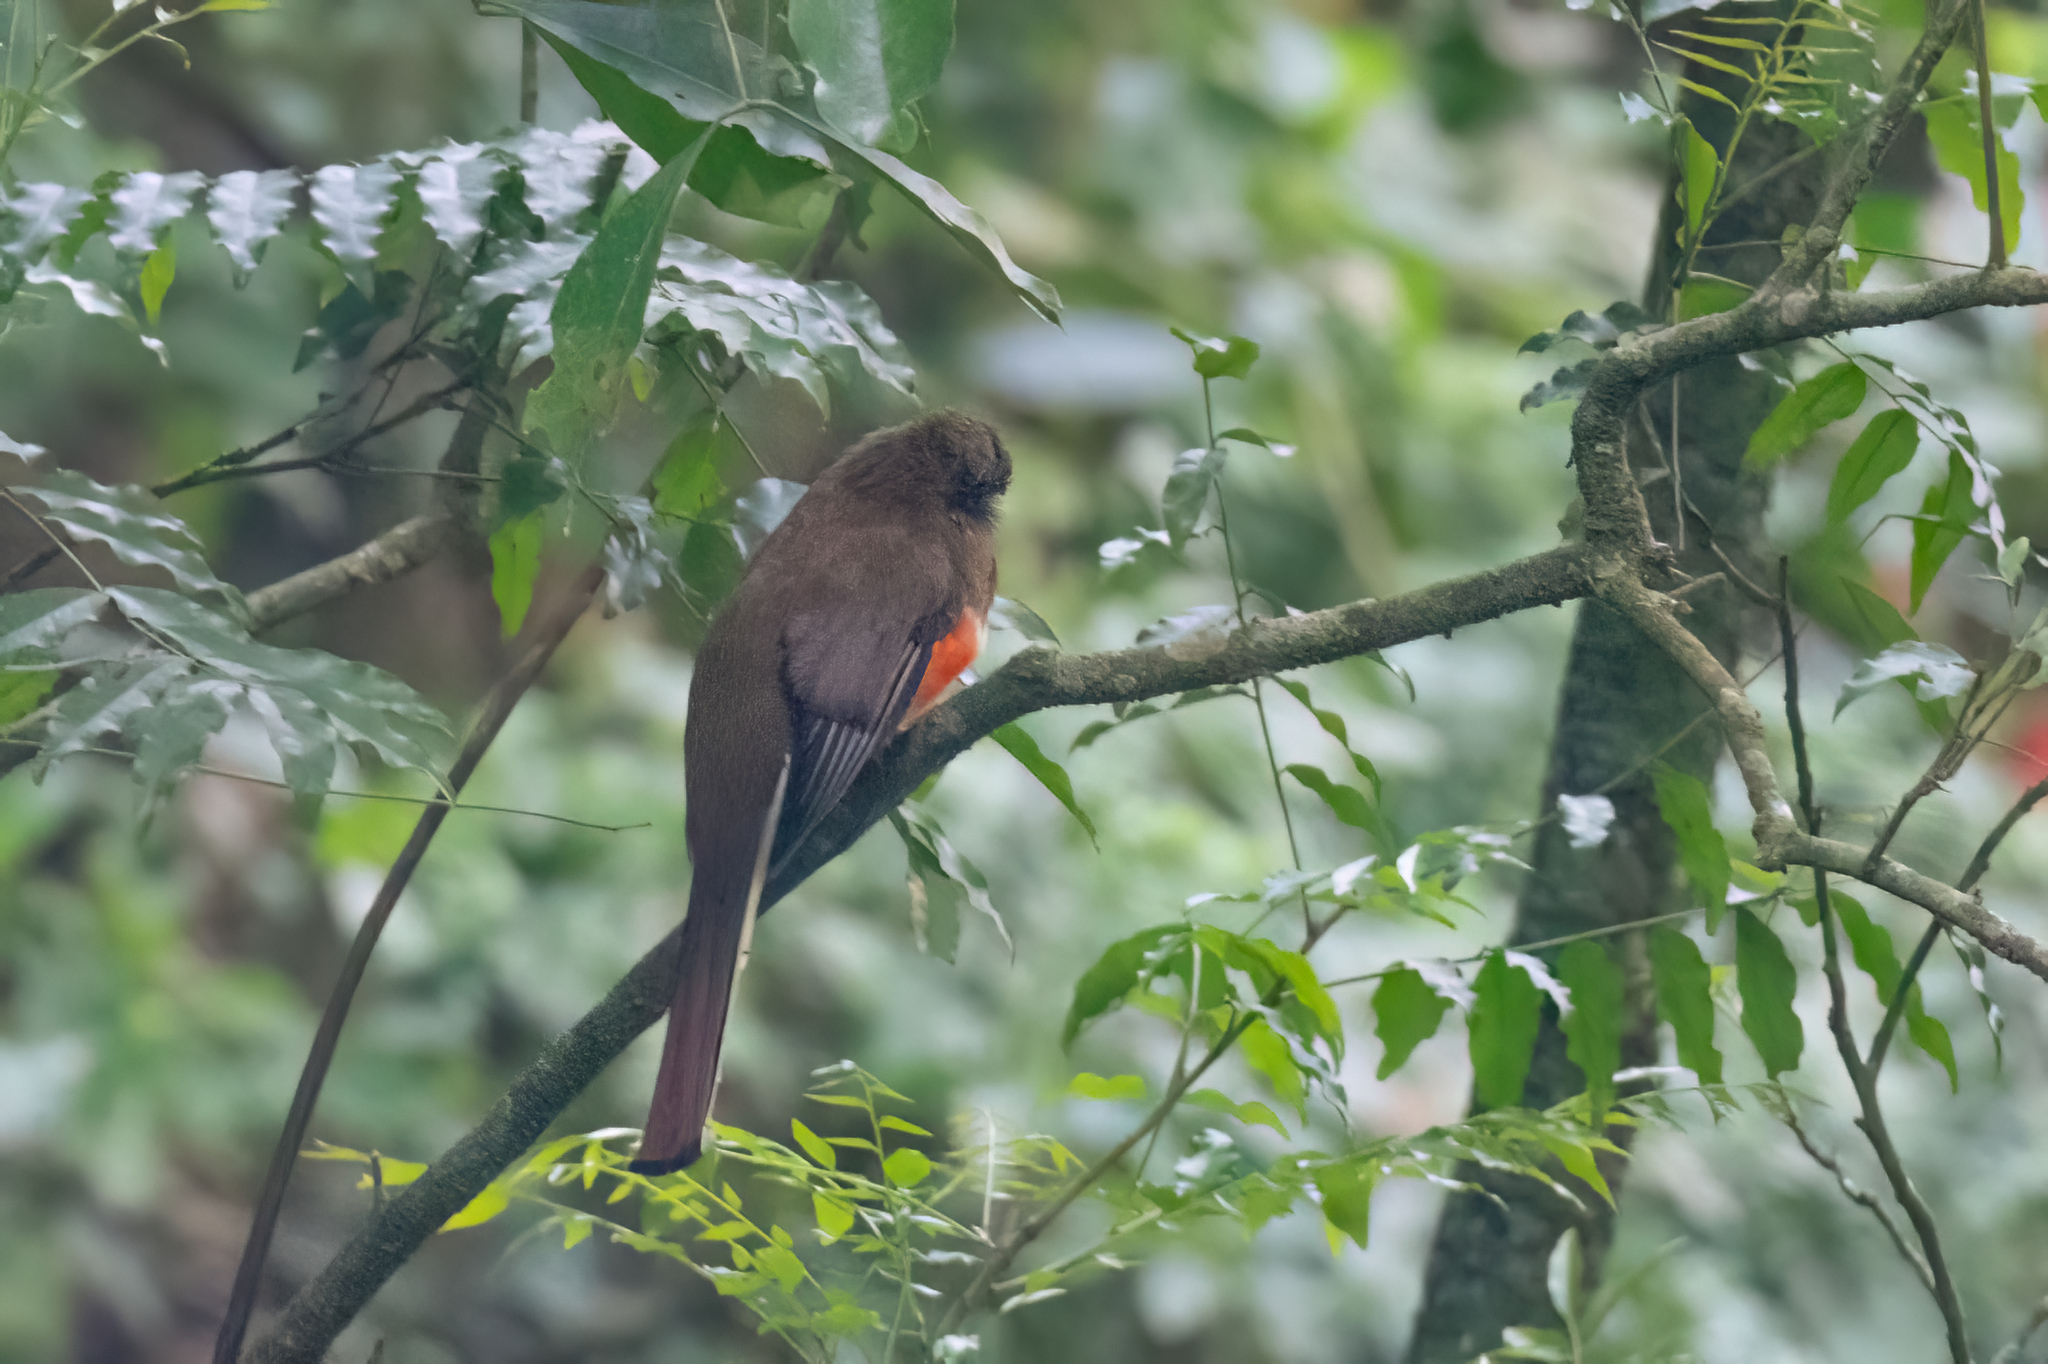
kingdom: Animalia
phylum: Chordata
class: Aves
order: Trogoniformes
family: Trogonidae
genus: Trogon
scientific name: Trogon collaris
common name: Collared trogon
